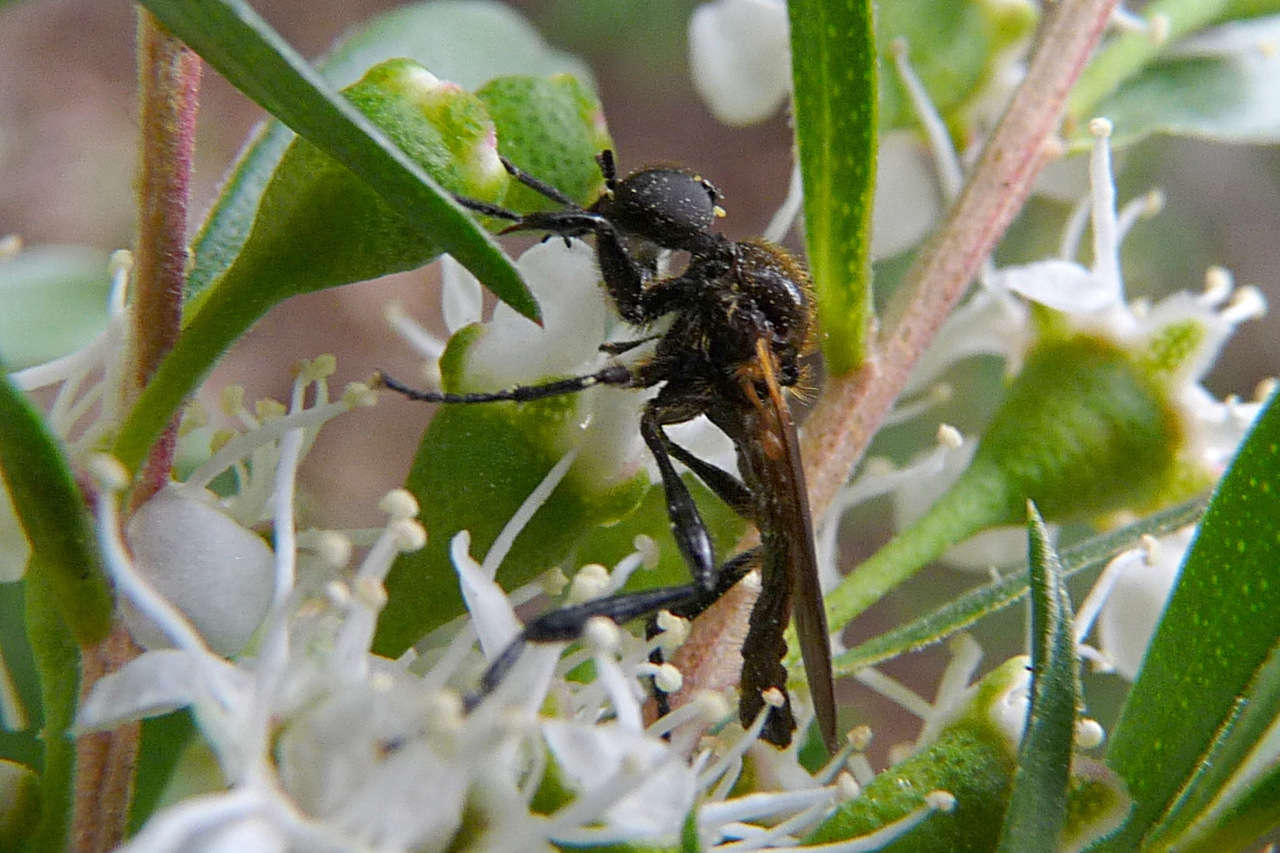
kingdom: Animalia
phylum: Arthropoda
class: Insecta
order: Diptera
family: Bibionidae
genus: Bibio
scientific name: Bibio imitator
